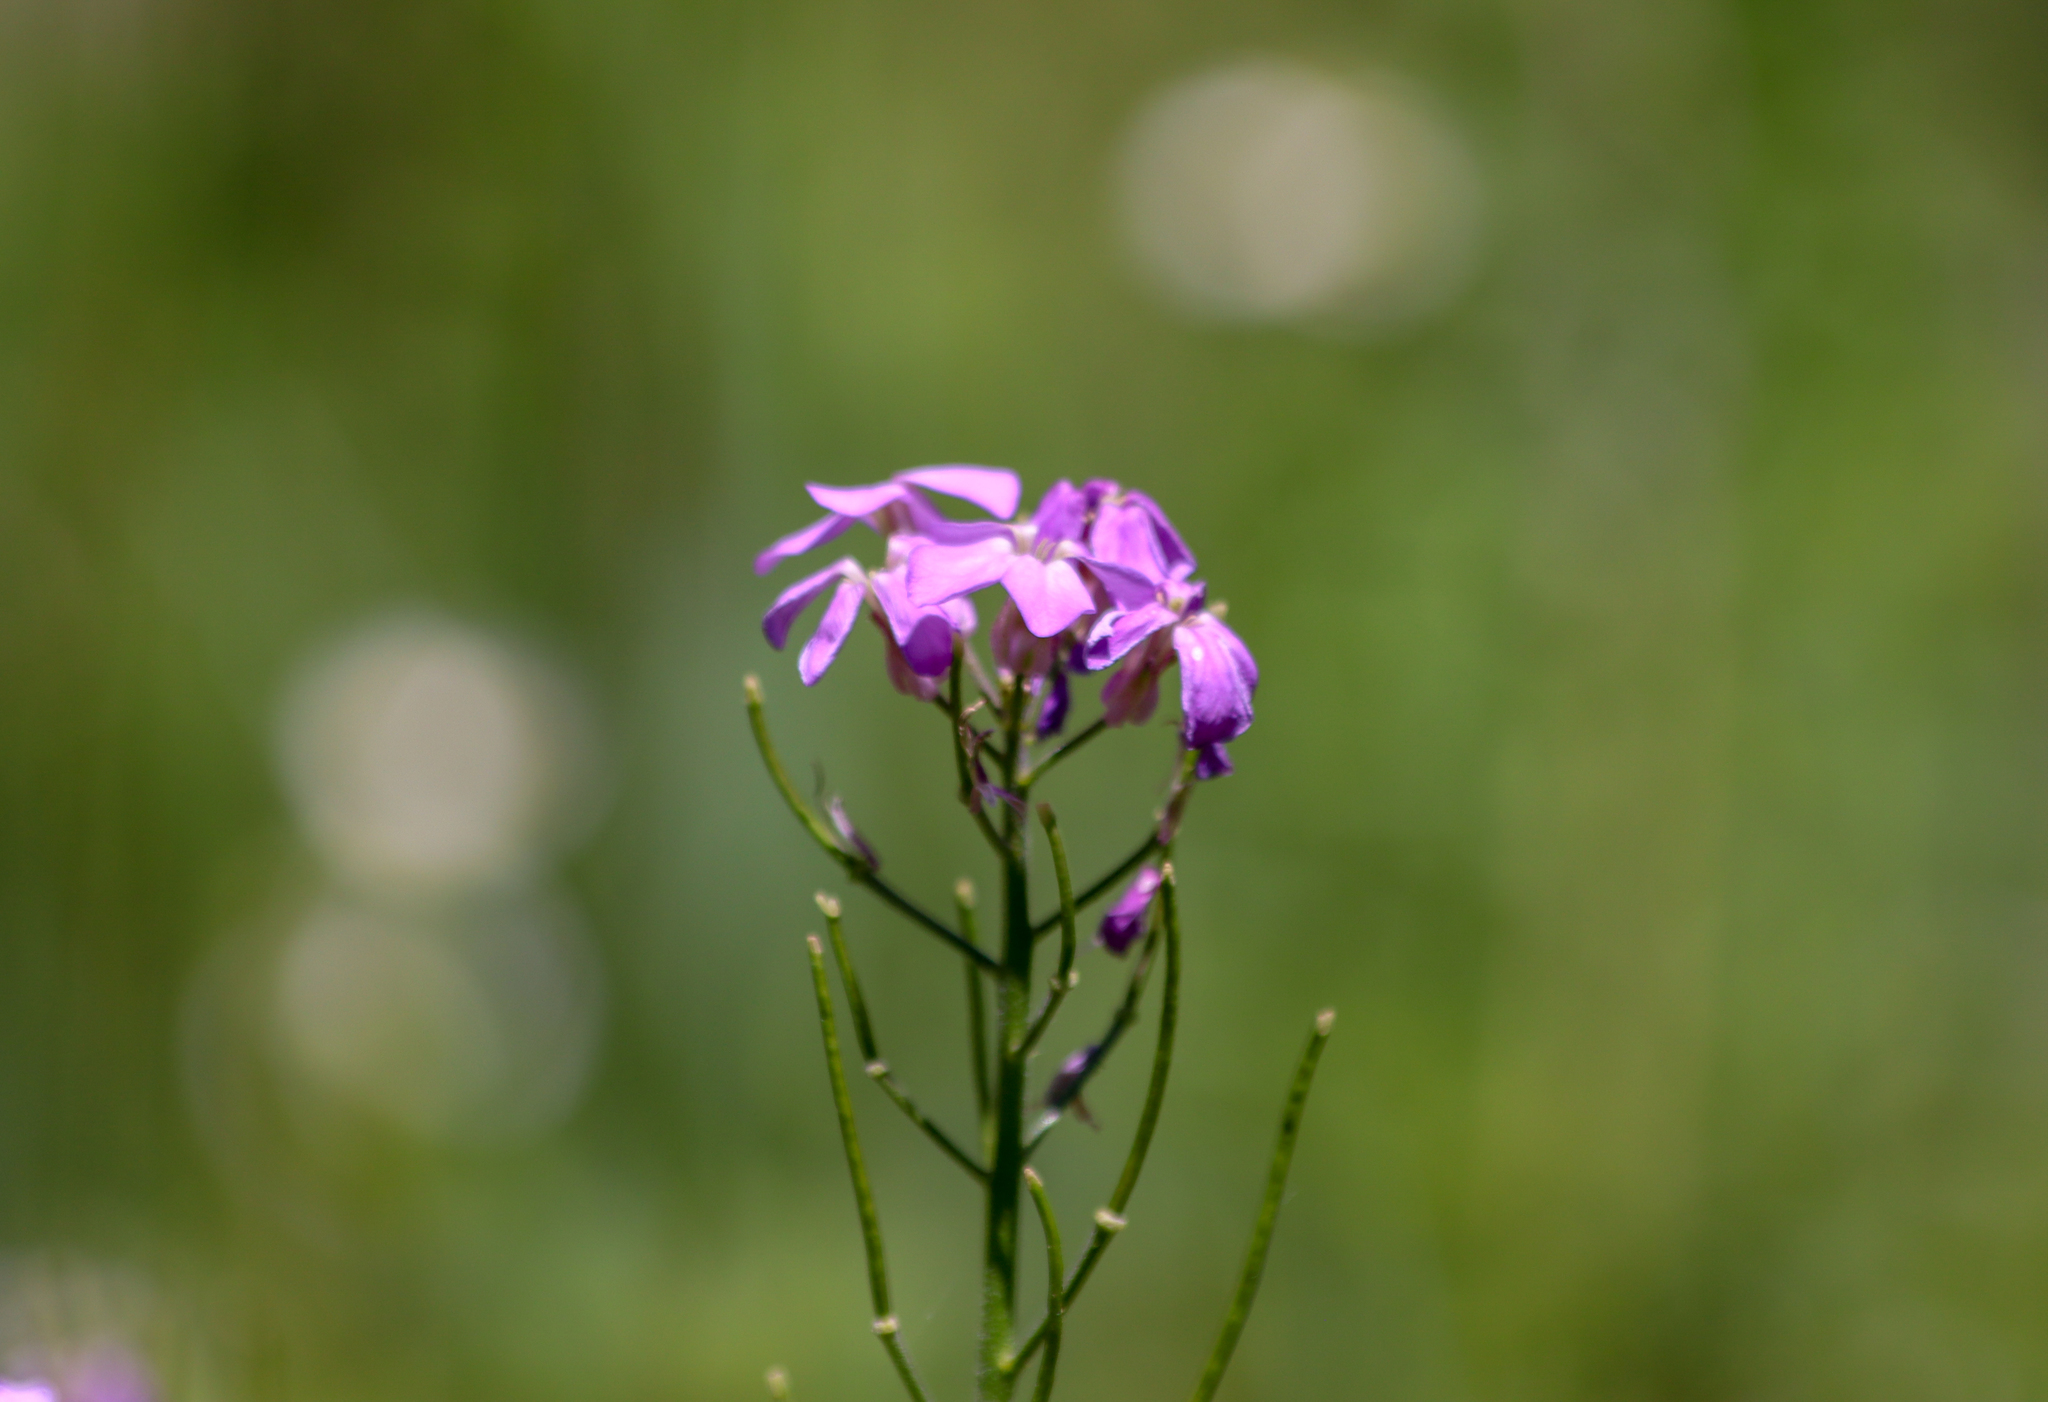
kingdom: Plantae
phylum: Tracheophyta
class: Magnoliopsida
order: Brassicales
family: Brassicaceae
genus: Hesperis
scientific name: Hesperis matronalis
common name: Dame's-violet
